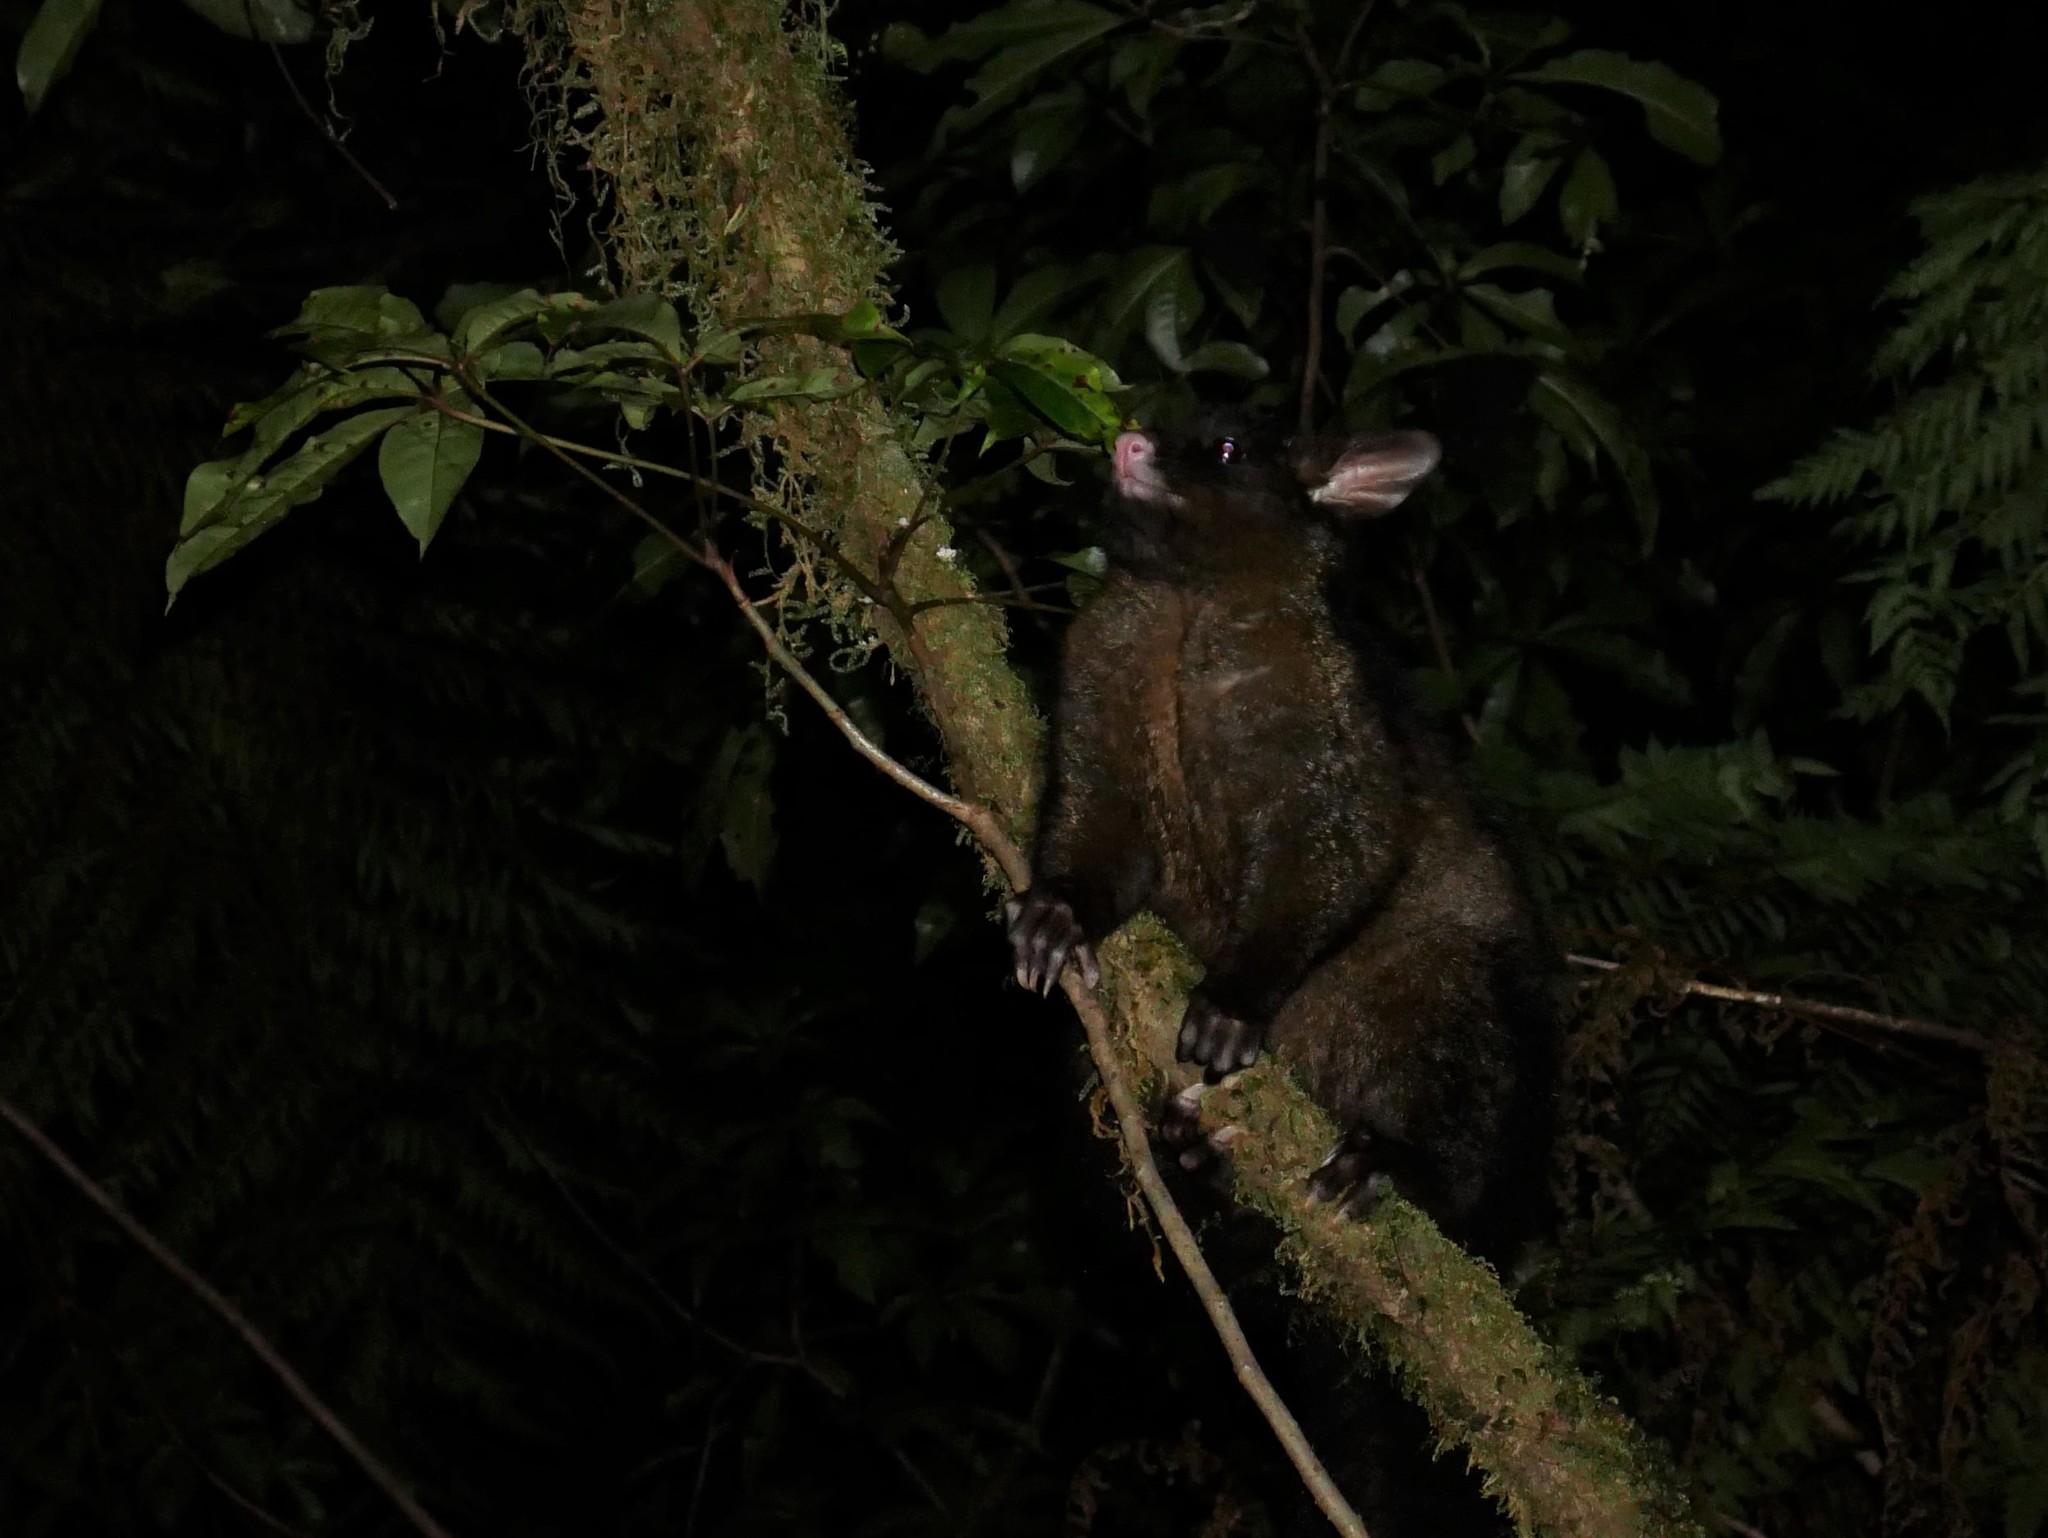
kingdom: Animalia
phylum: Chordata
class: Mammalia
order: Diprotodontia
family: Phalangeridae
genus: Trichosurus
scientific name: Trichosurus vulpecula
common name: Common brushtail
